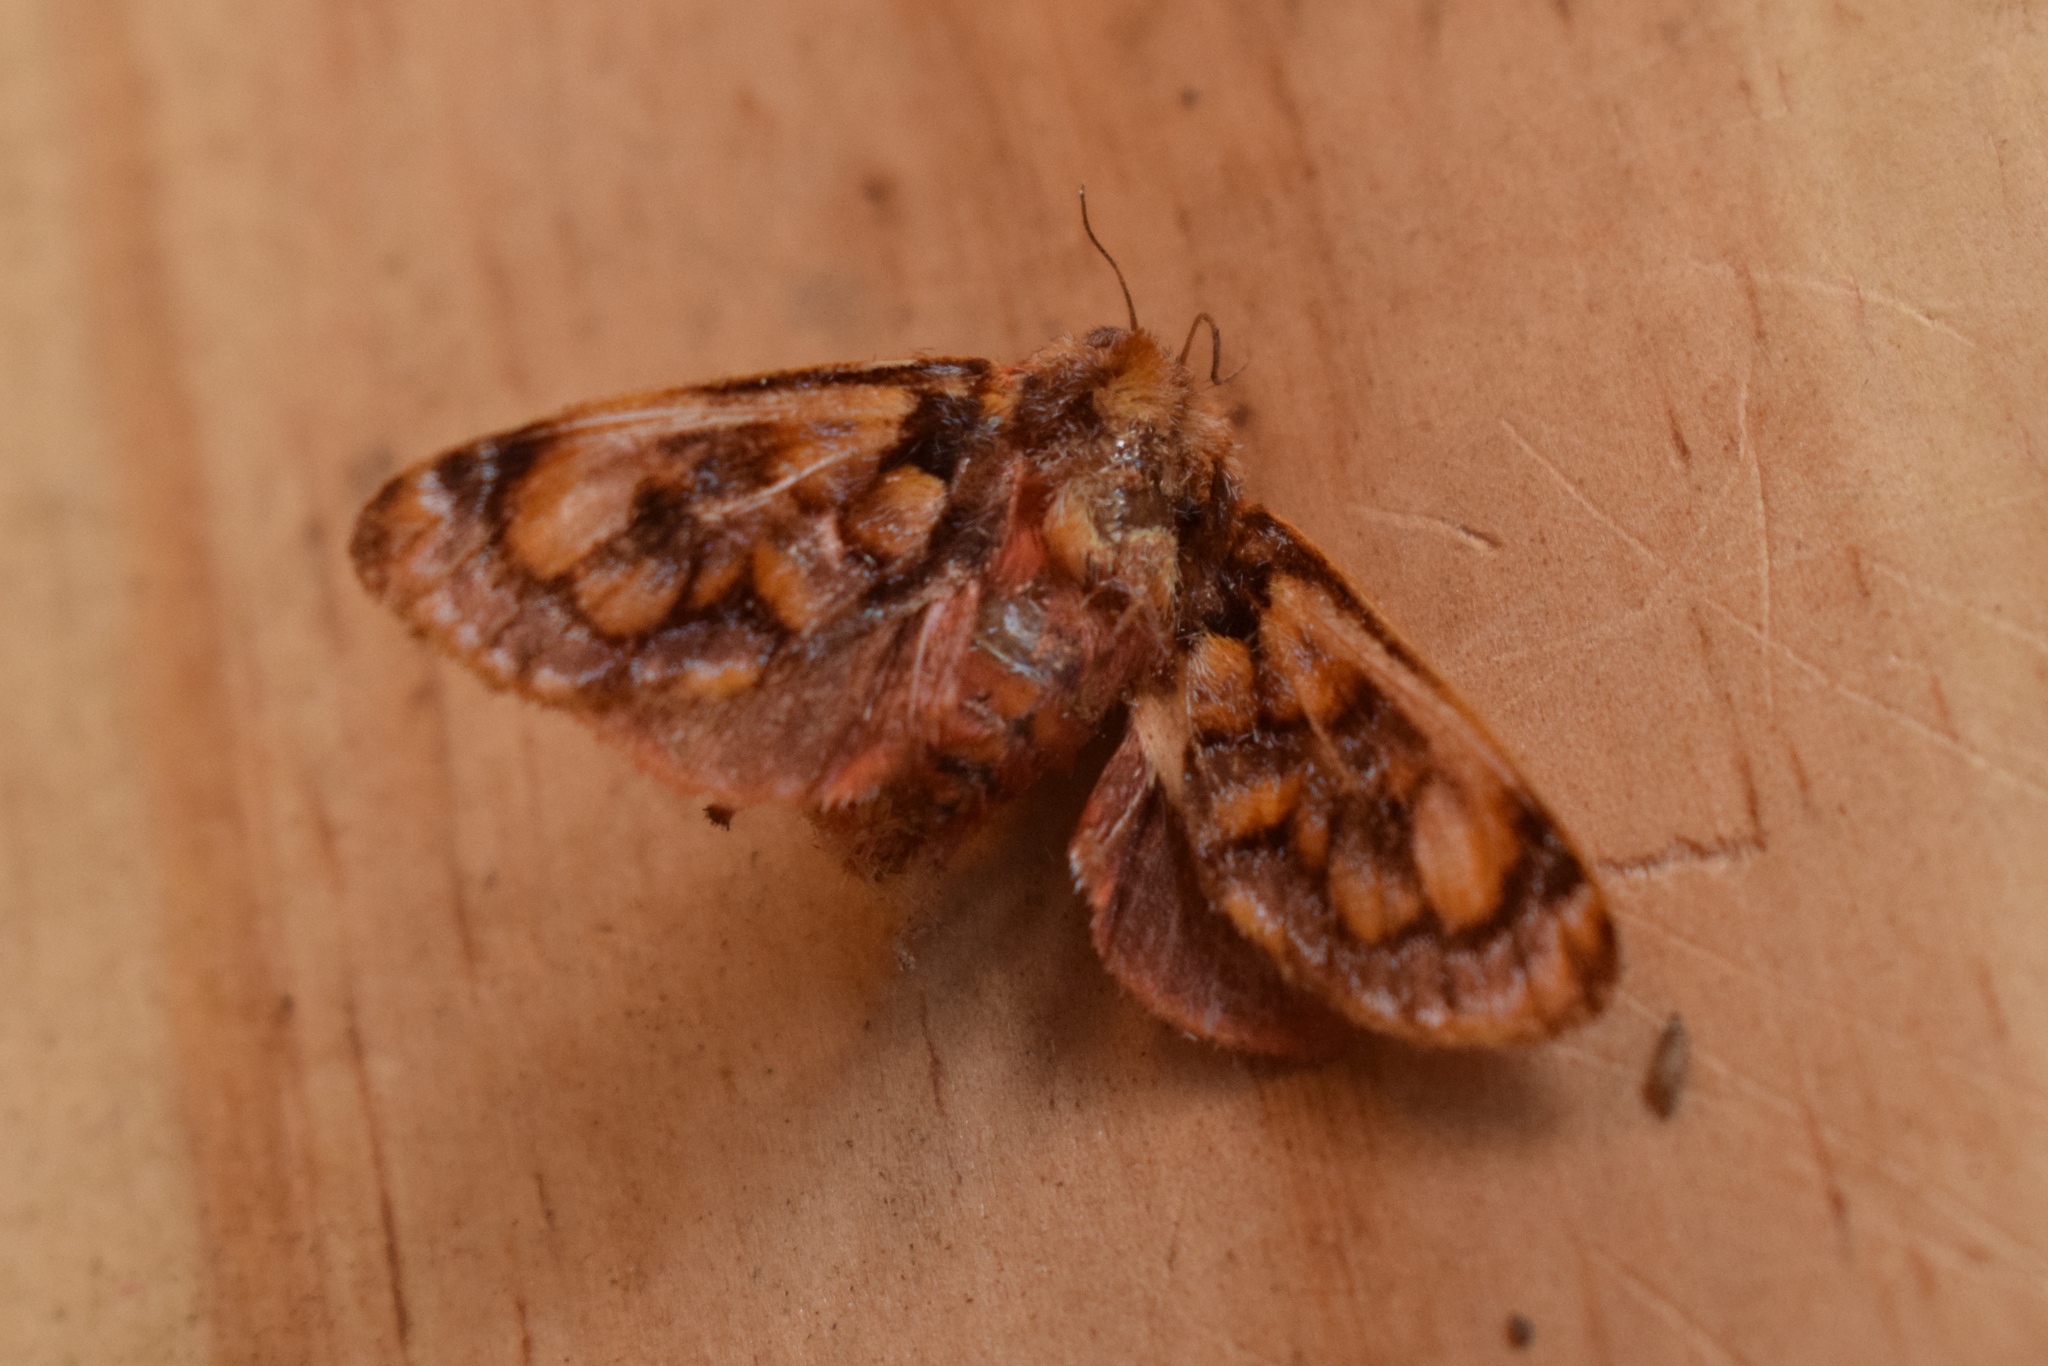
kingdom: Animalia
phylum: Arthropoda
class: Insecta
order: Lepidoptera
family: Limacodidae
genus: Phobetron
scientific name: Phobetron hipparchia
